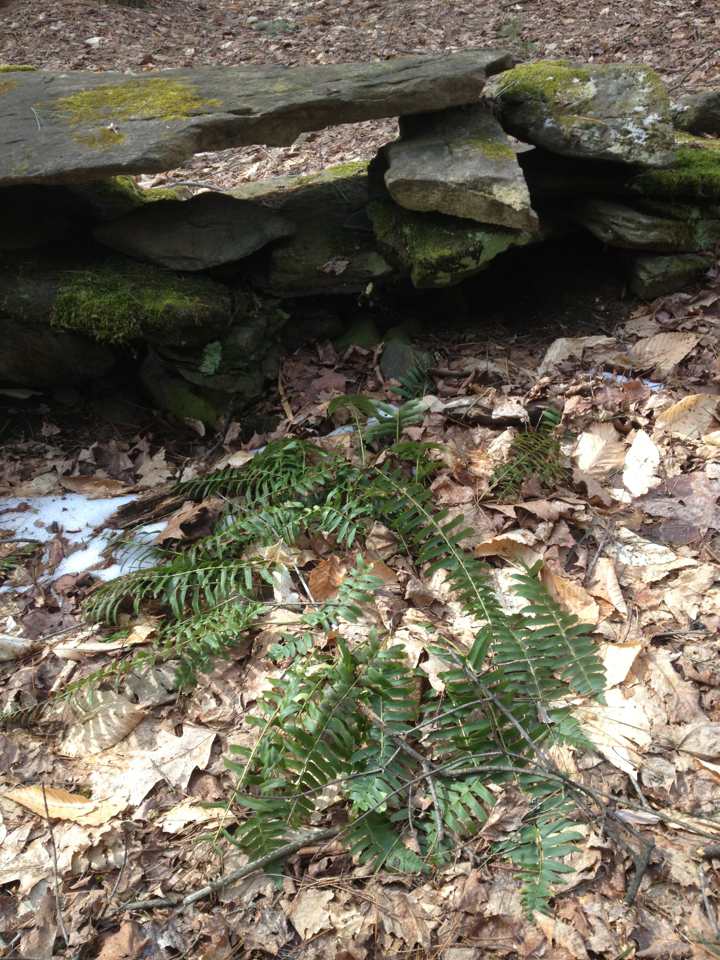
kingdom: Plantae
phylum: Tracheophyta
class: Polypodiopsida
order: Polypodiales
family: Dryopteridaceae
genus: Polystichum
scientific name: Polystichum acrostichoides
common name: Christmas fern
